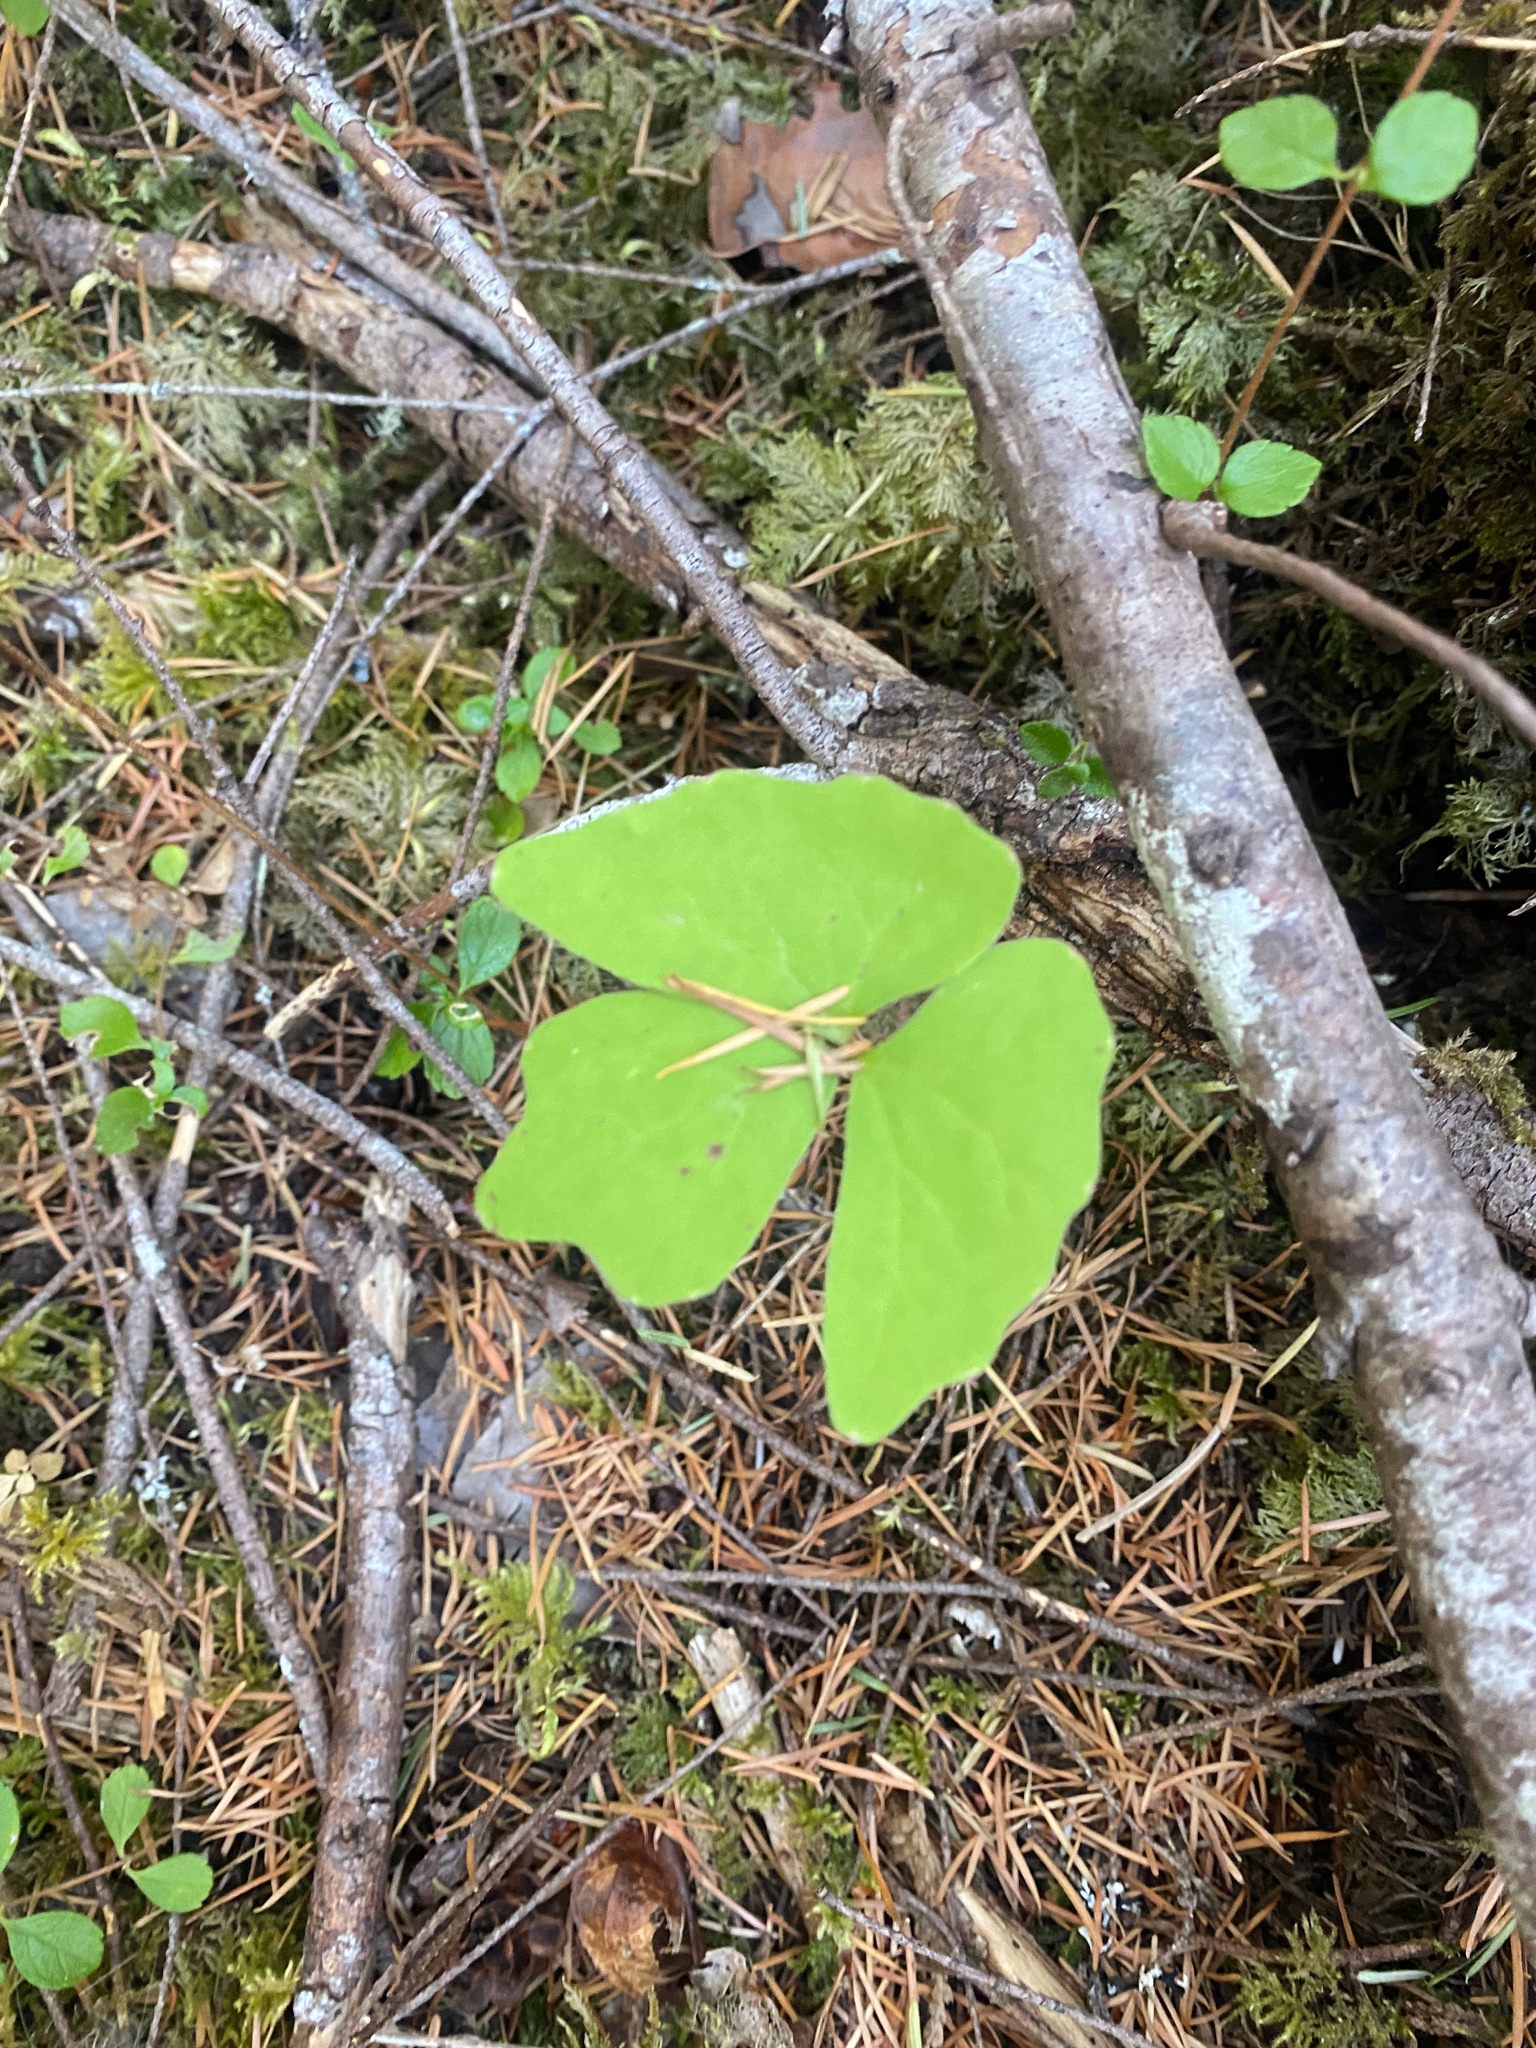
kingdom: Plantae
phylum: Tracheophyta
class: Magnoliopsida
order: Ranunculales
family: Berberidaceae
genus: Achlys
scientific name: Achlys triphylla
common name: Vanilla-leaf
